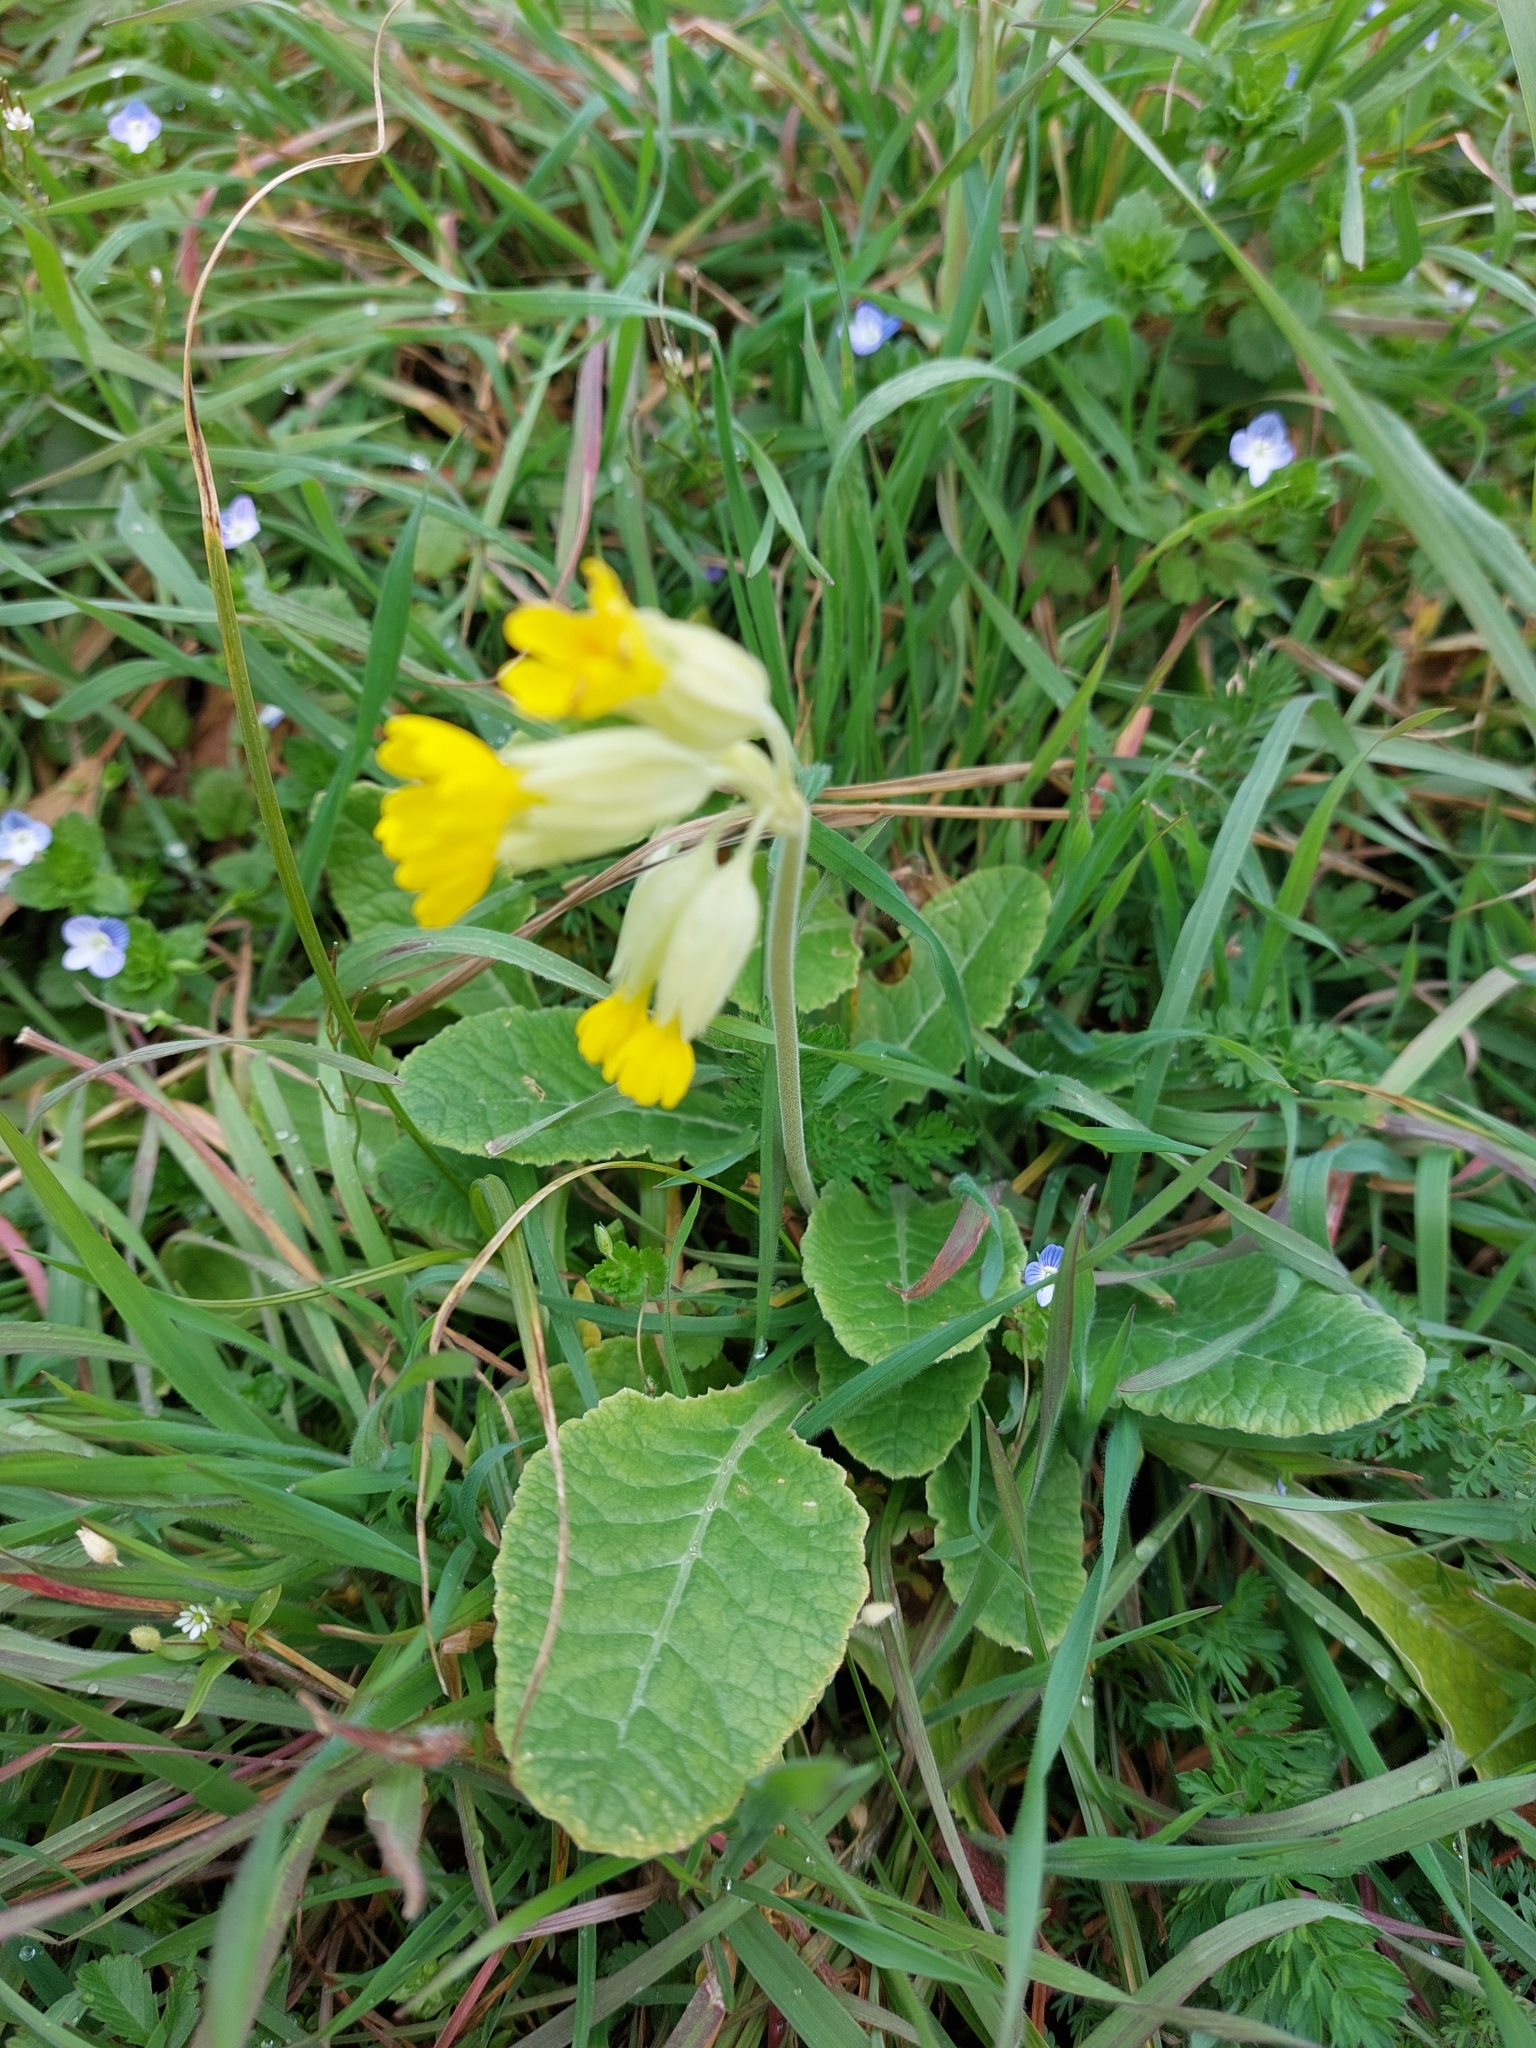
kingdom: Plantae
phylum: Tracheophyta
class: Magnoliopsida
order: Ericales
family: Primulaceae
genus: Primula
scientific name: Primula veris
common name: Cowslip
